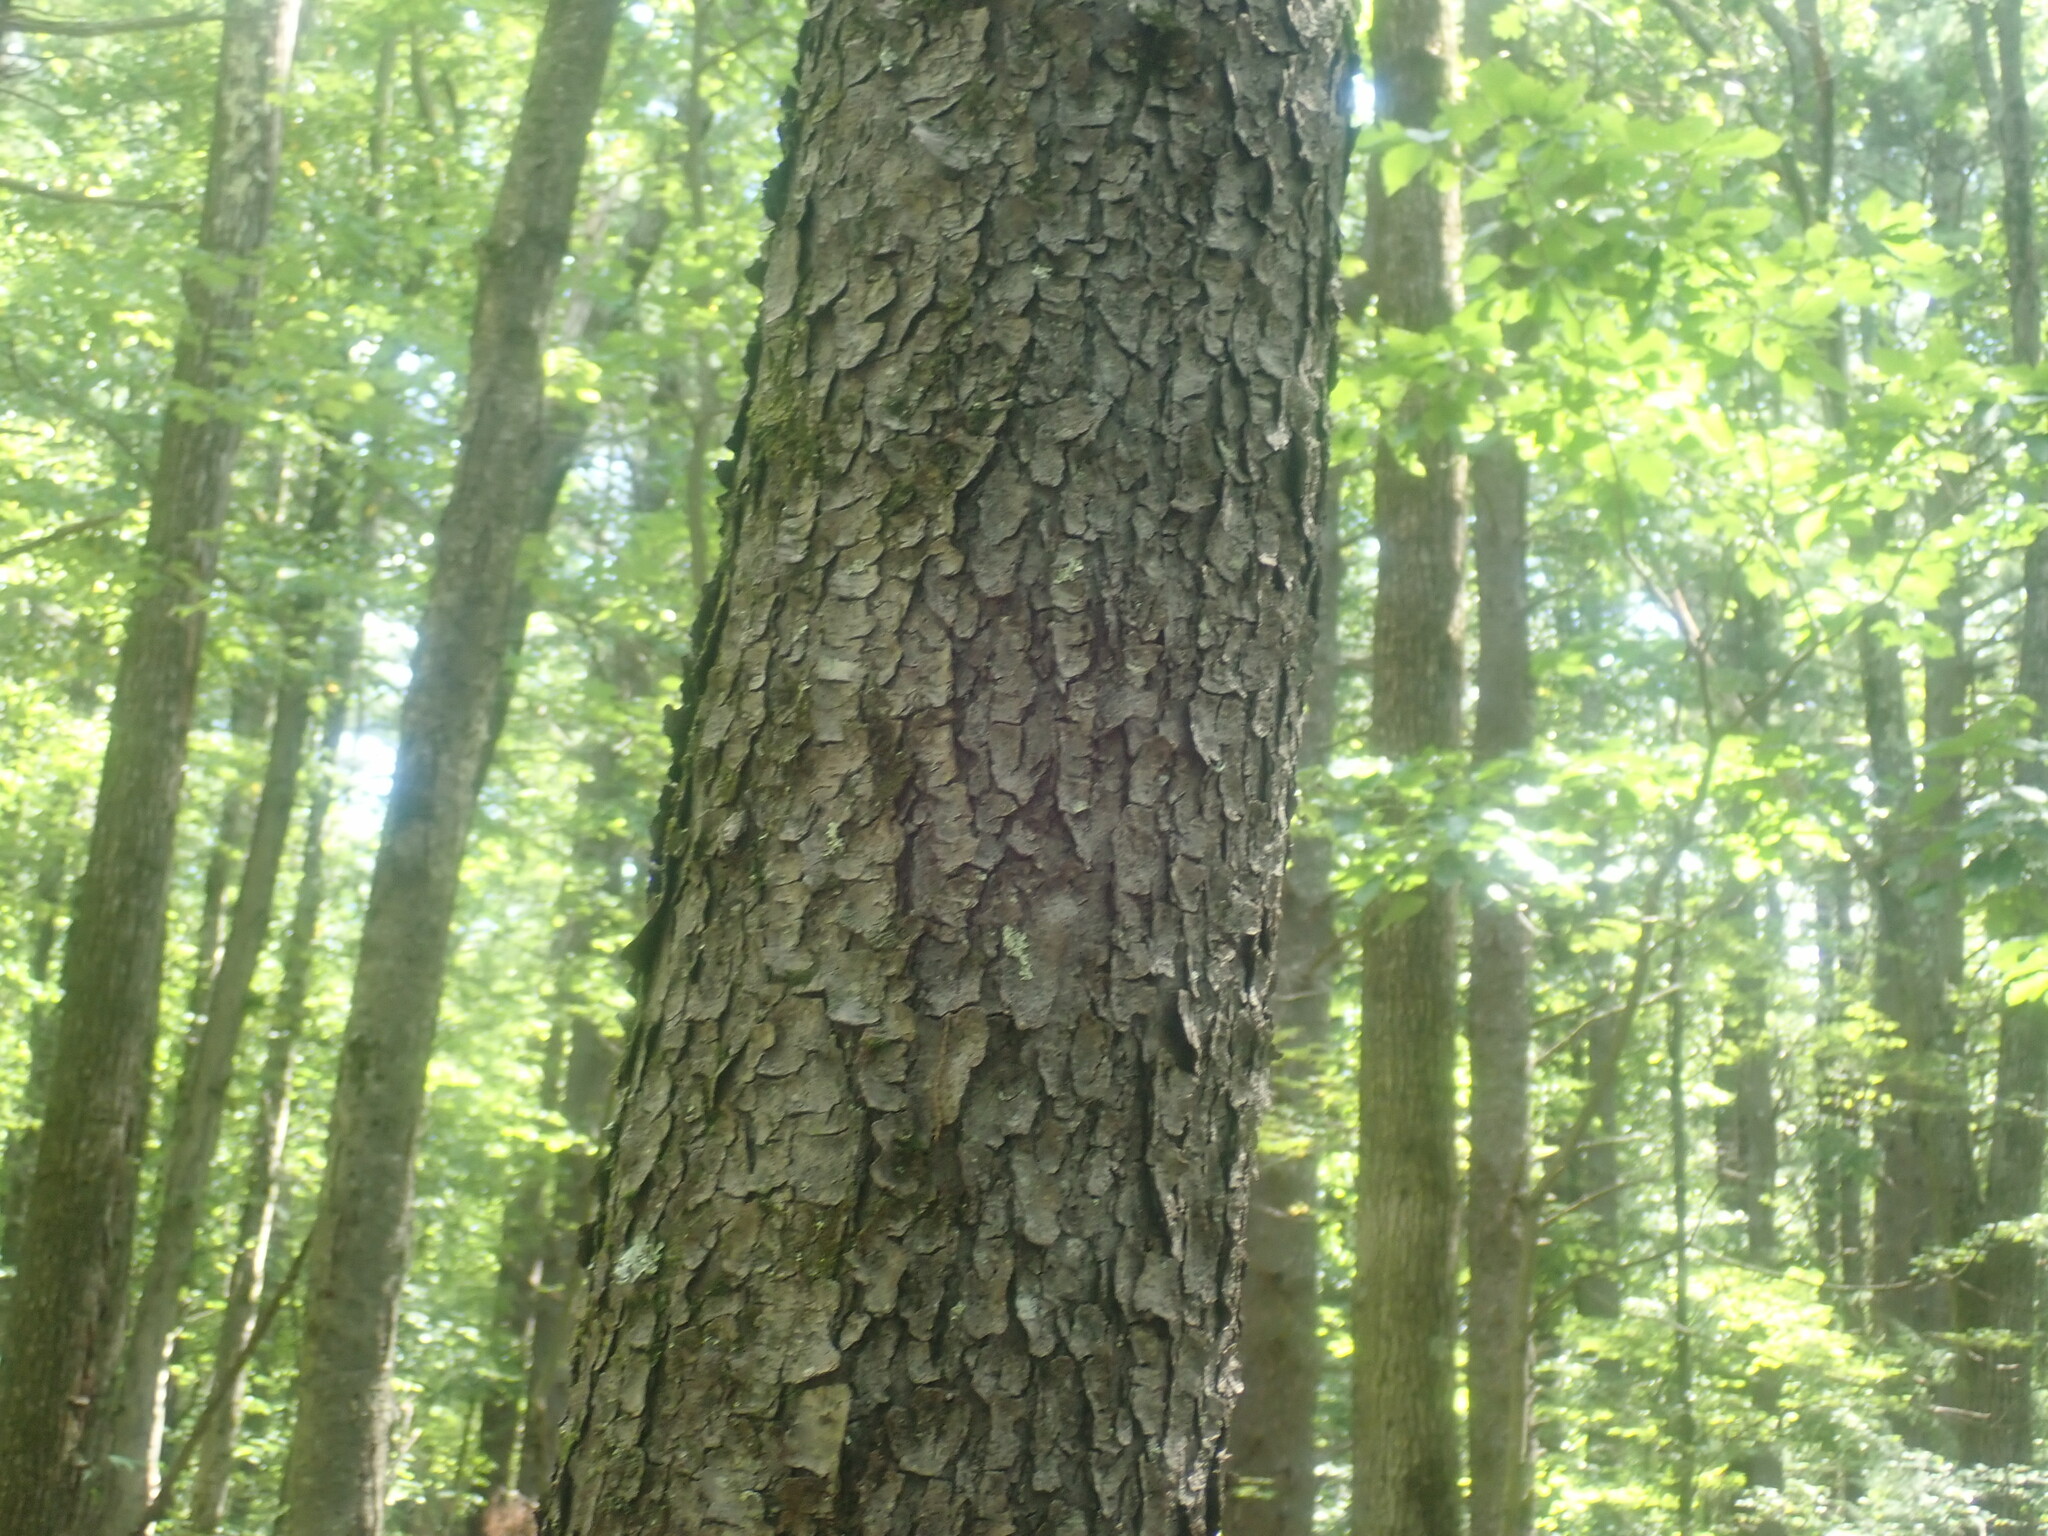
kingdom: Plantae
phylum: Tracheophyta
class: Magnoliopsida
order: Rosales
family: Rosaceae
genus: Prunus
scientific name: Prunus serotina
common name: Black cherry
